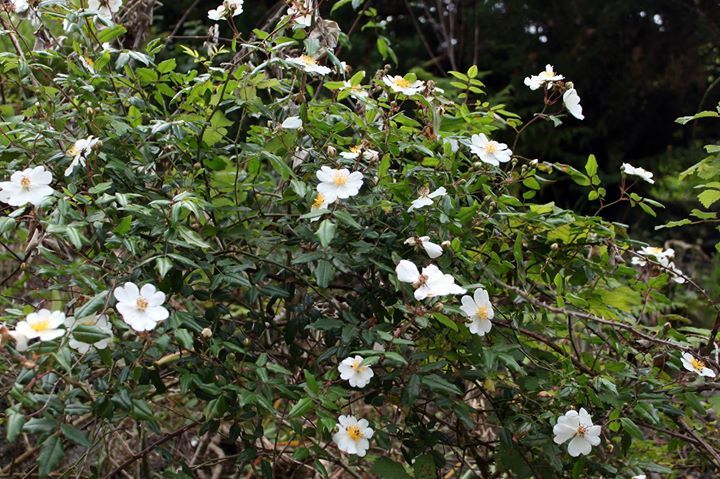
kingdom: Plantae
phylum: Tracheophyta
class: Magnoliopsida
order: Rosales
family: Rosaceae
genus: Rosa
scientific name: Rosa sempervirens
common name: Evergreen rose
